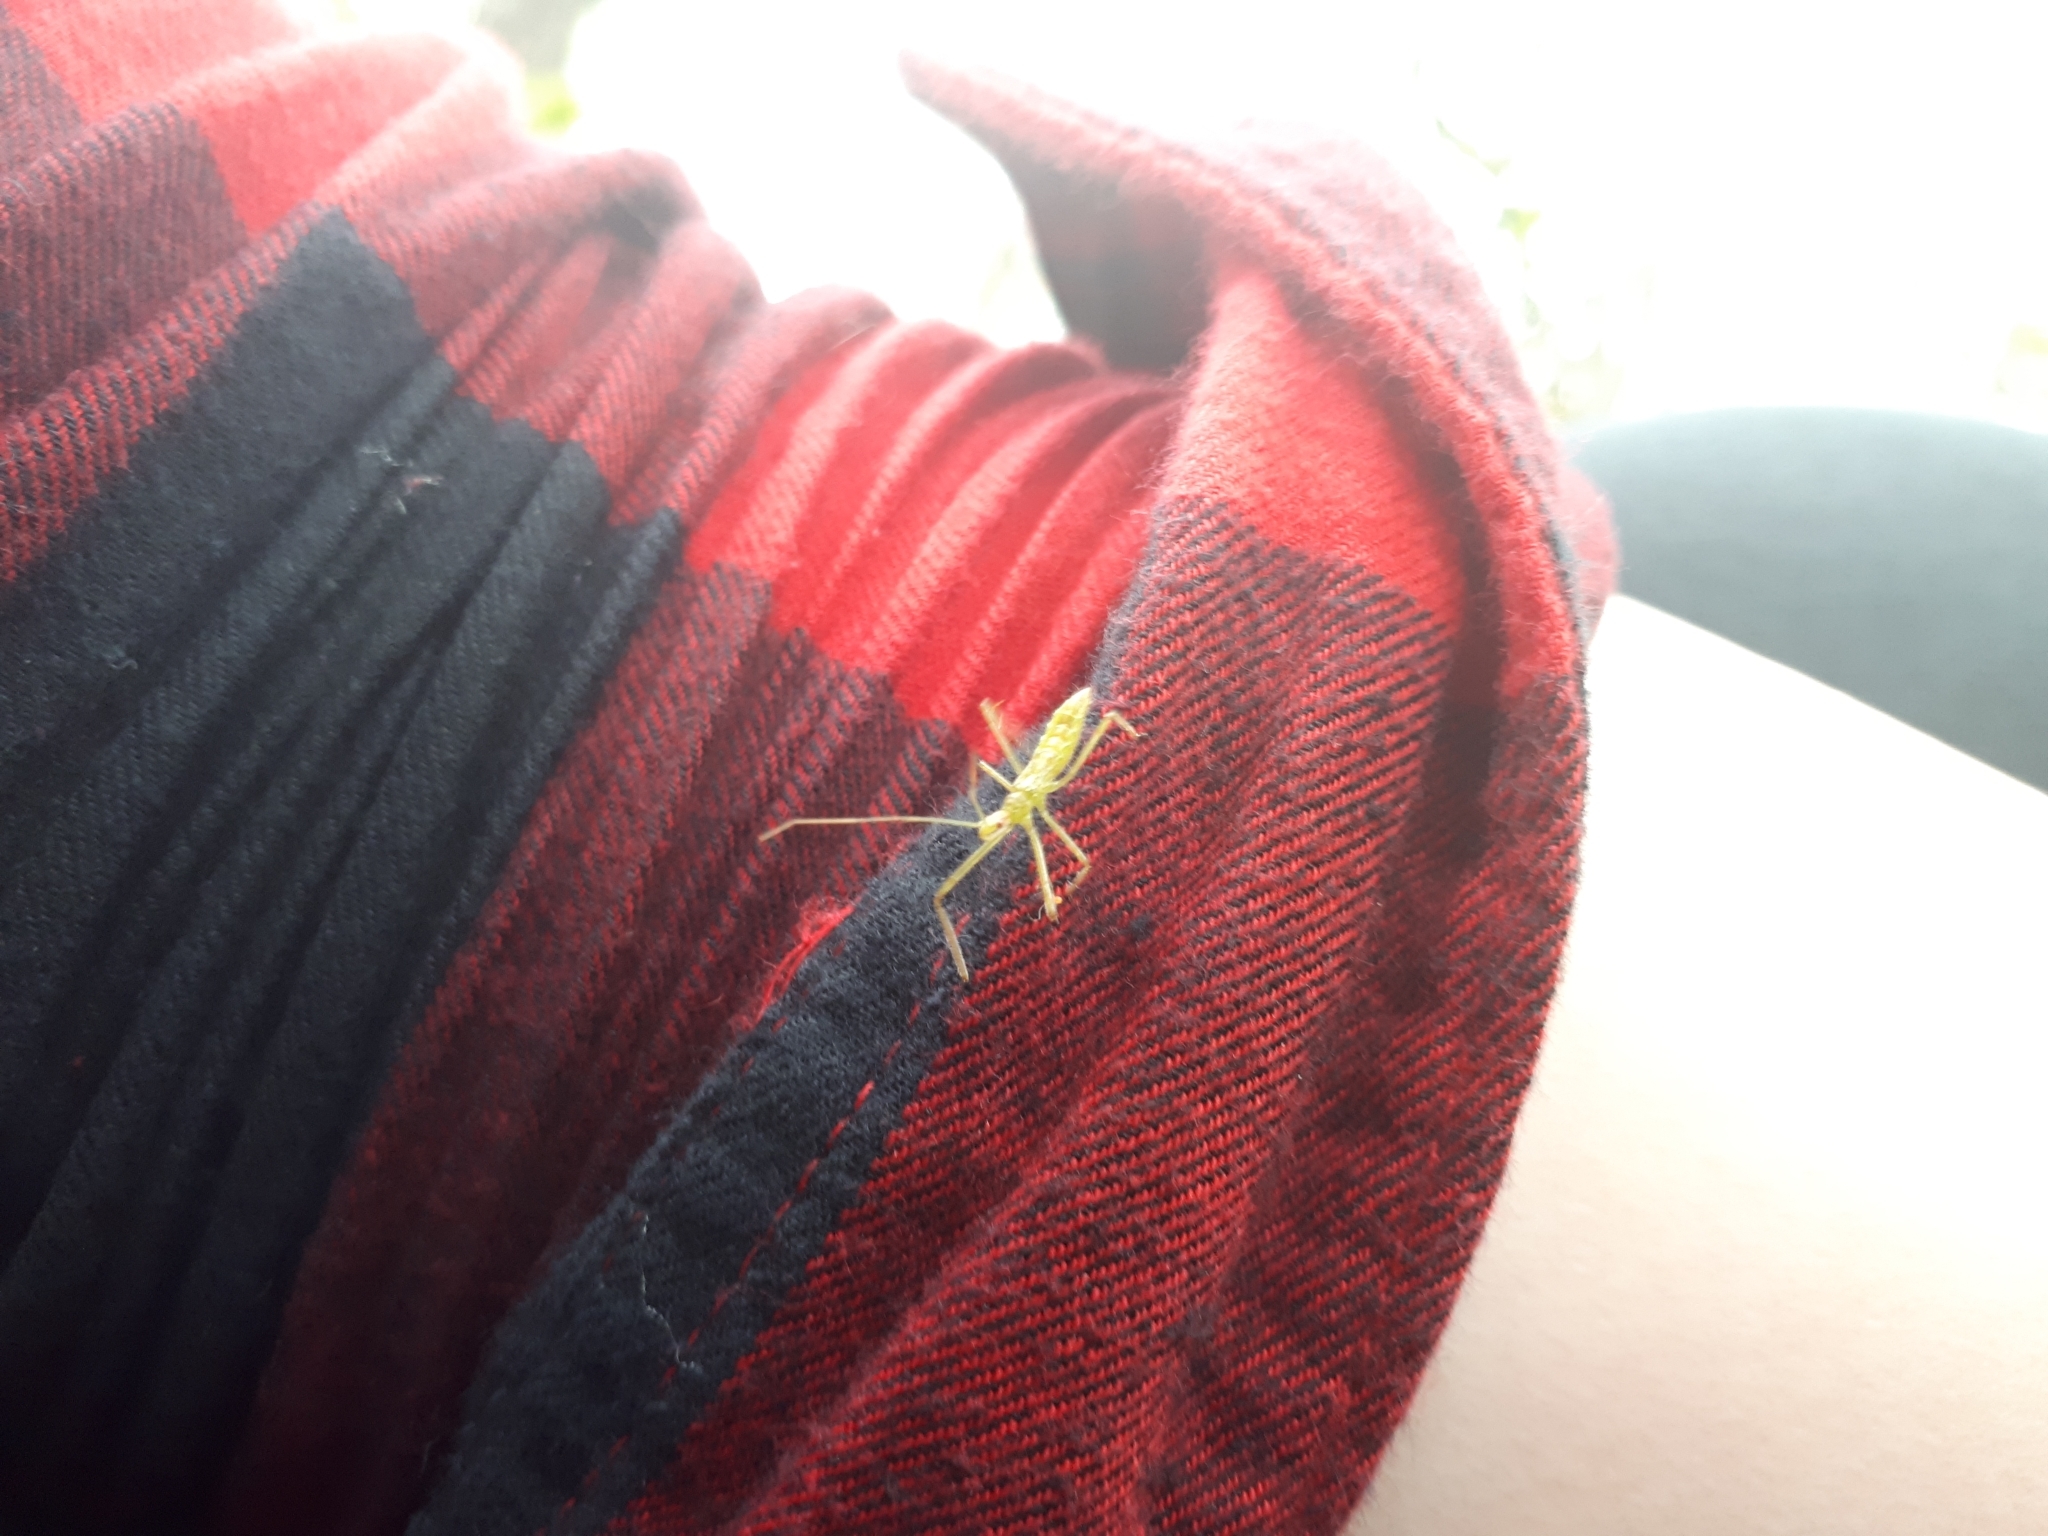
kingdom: Animalia
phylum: Arthropoda
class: Insecta
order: Hemiptera
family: Reduviidae
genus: Zelus
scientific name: Zelus luridus
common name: Pale green assassin bug
